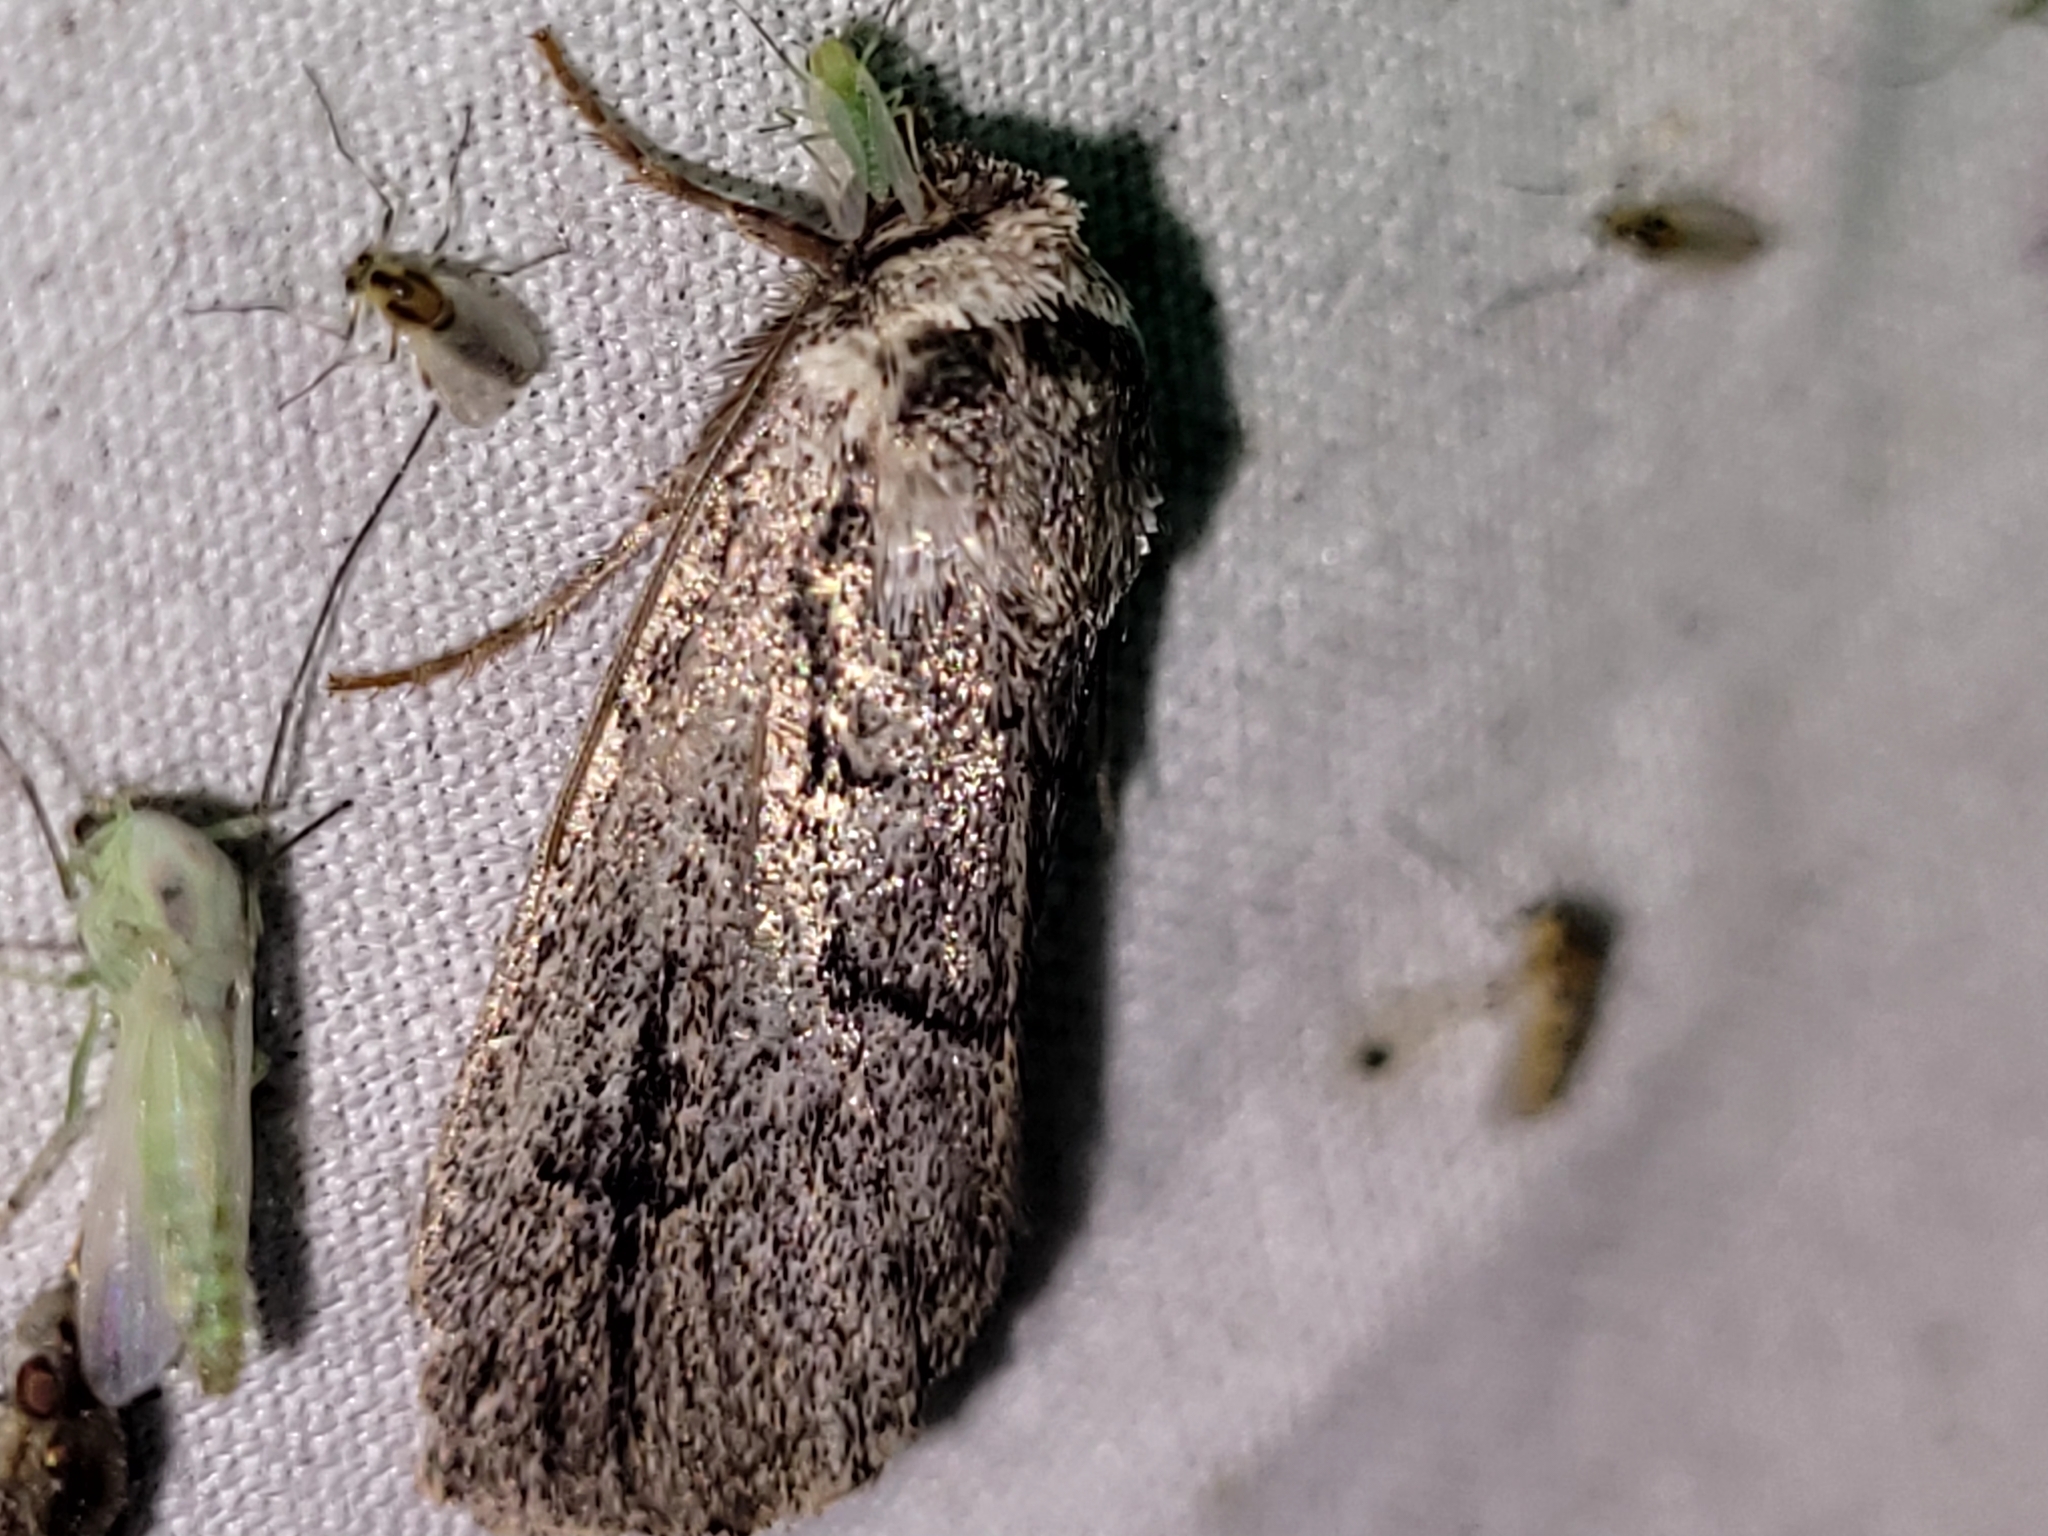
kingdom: Animalia
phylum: Arthropoda
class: Insecta
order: Lepidoptera
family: Noctuidae
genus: Sympistis
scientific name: Sympistis dinalda
